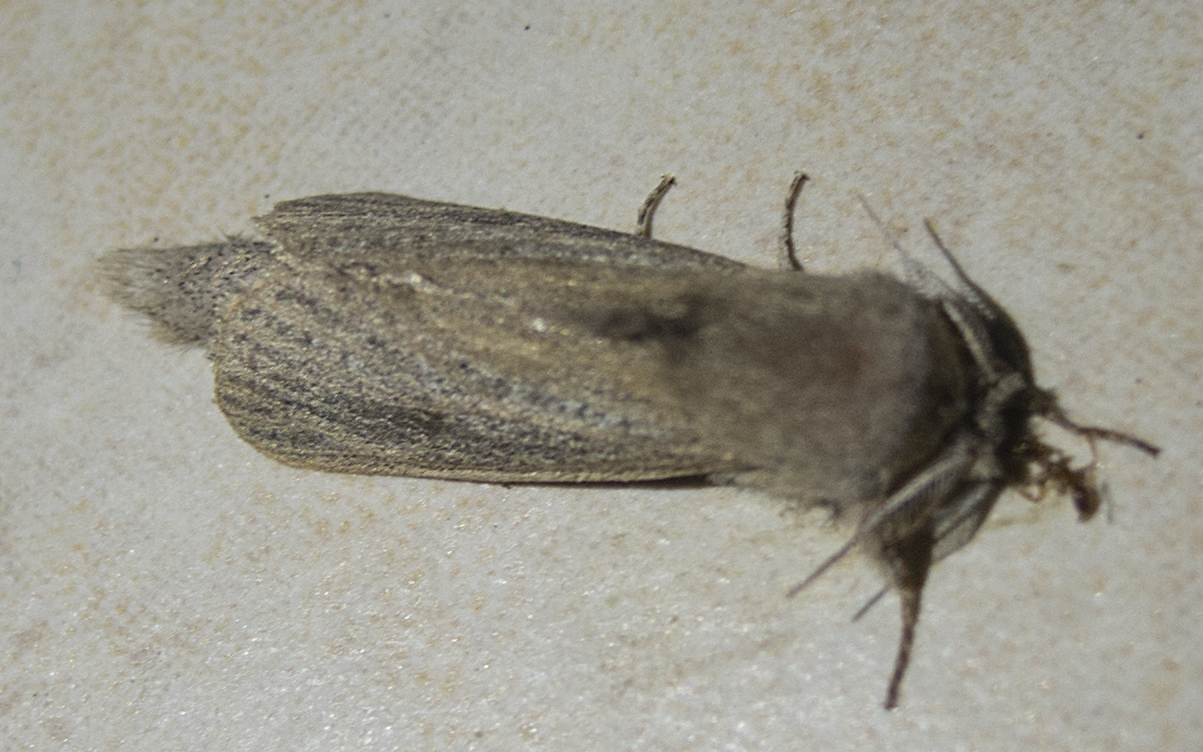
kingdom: Animalia
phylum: Arthropoda
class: Insecta
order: Lepidoptera
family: Cossidae
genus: Phragmataecia
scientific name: Phragmataecia castaneae
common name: Reed leopard
